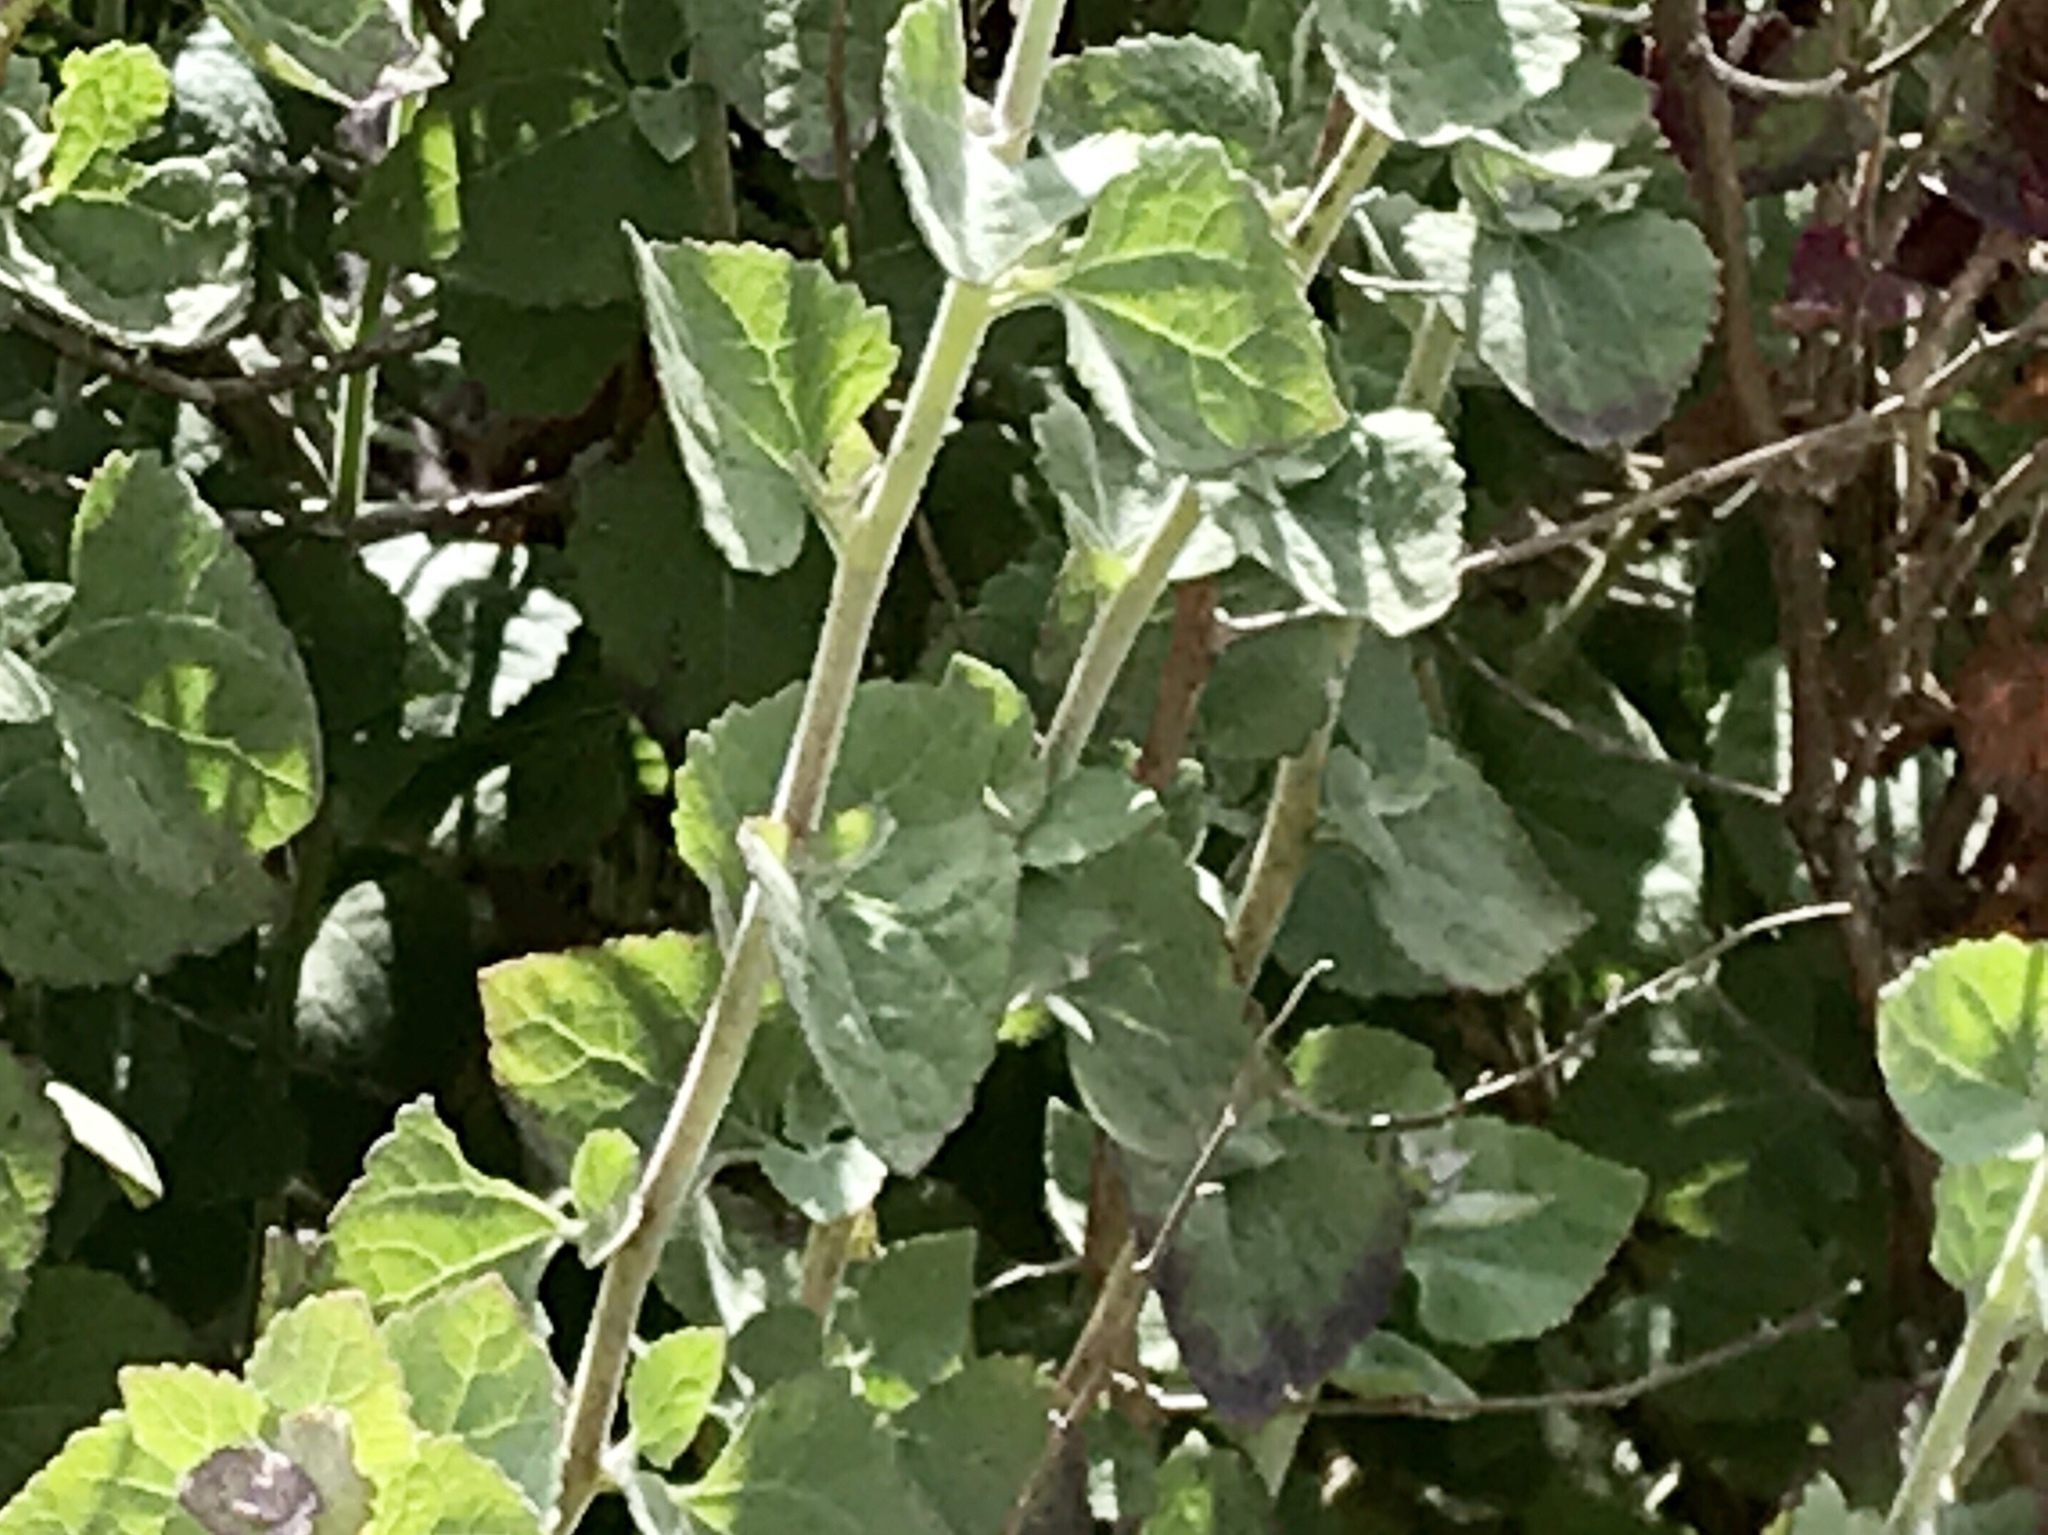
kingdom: Plantae
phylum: Tracheophyta
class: Magnoliopsida
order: Asterales
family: Asteraceae
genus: Brickellia
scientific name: Brickellia californica
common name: California brickellbush
